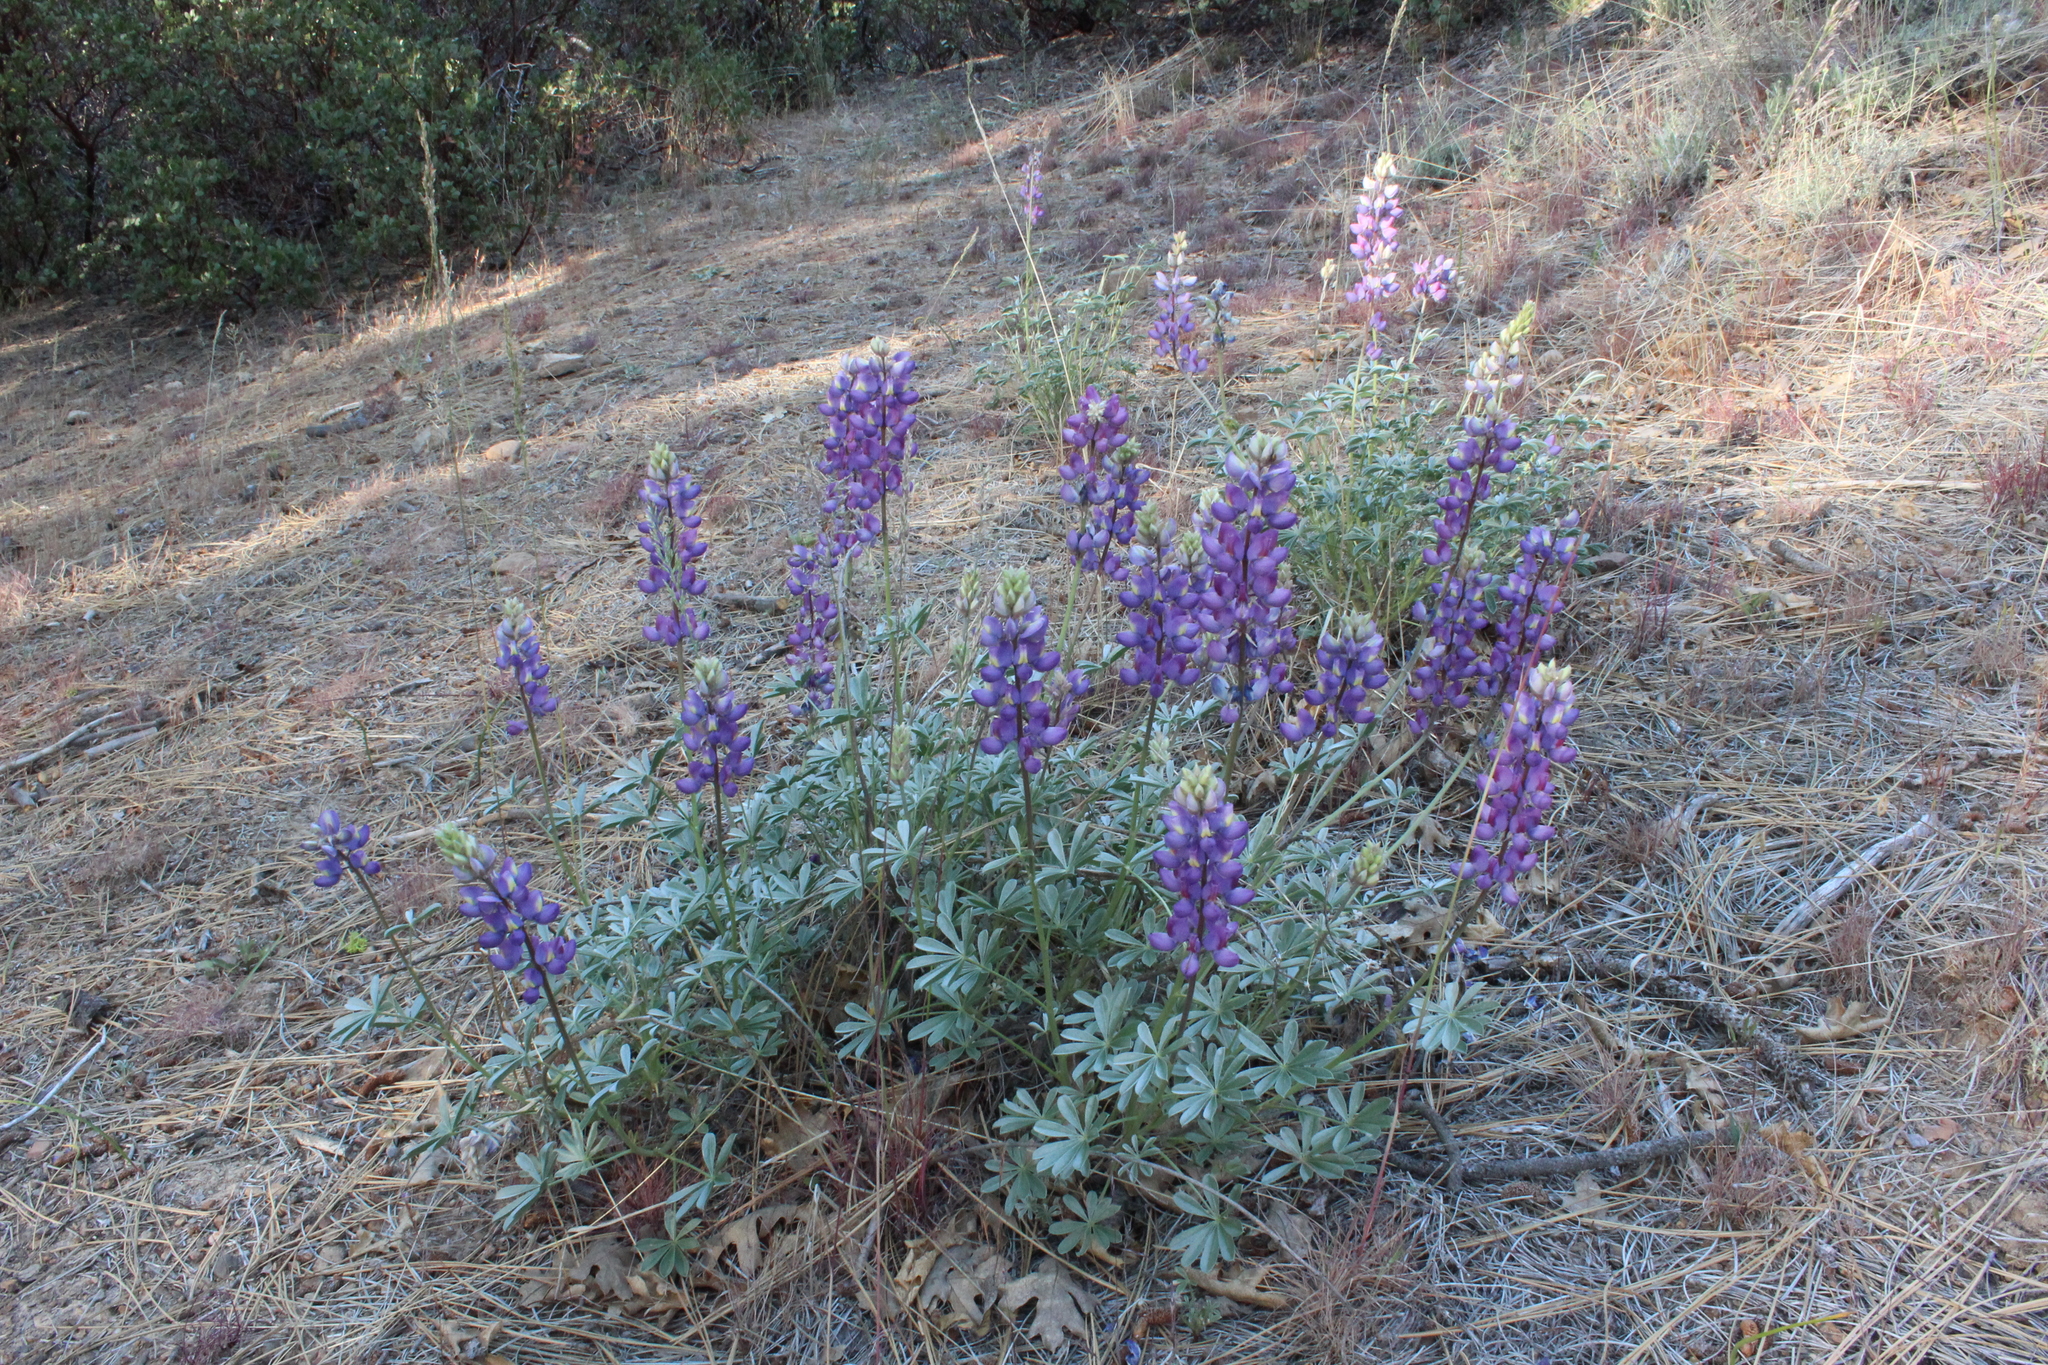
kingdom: Plantae
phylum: Tracheophyta
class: Magnoliopsida
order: Fabales
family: Fabaceae
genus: Lupinus
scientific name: Lupinus albifrons
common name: Foothill lupine
